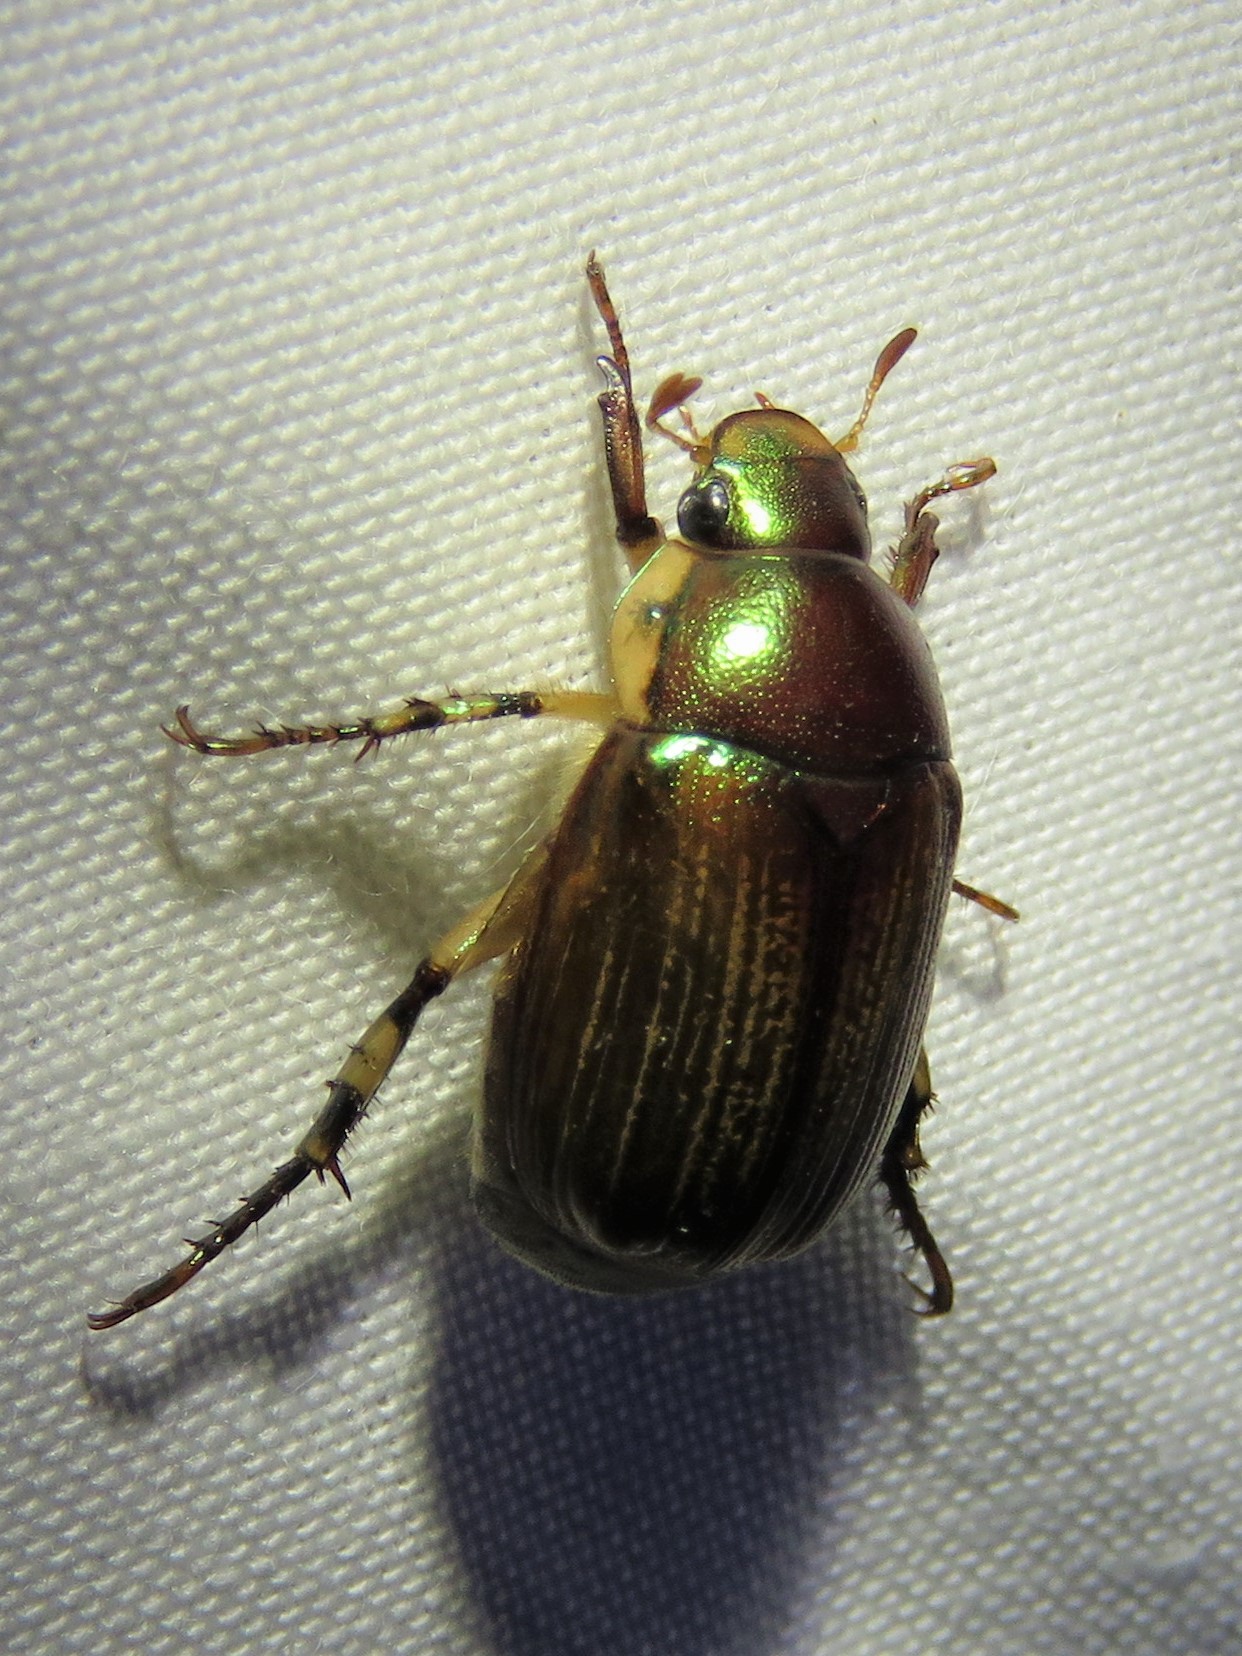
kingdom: Animalia
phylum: Arthropoda
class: Insecta
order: Coleoptera
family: Scarabaeidae
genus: Callistethus
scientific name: Callistethus marginatus
